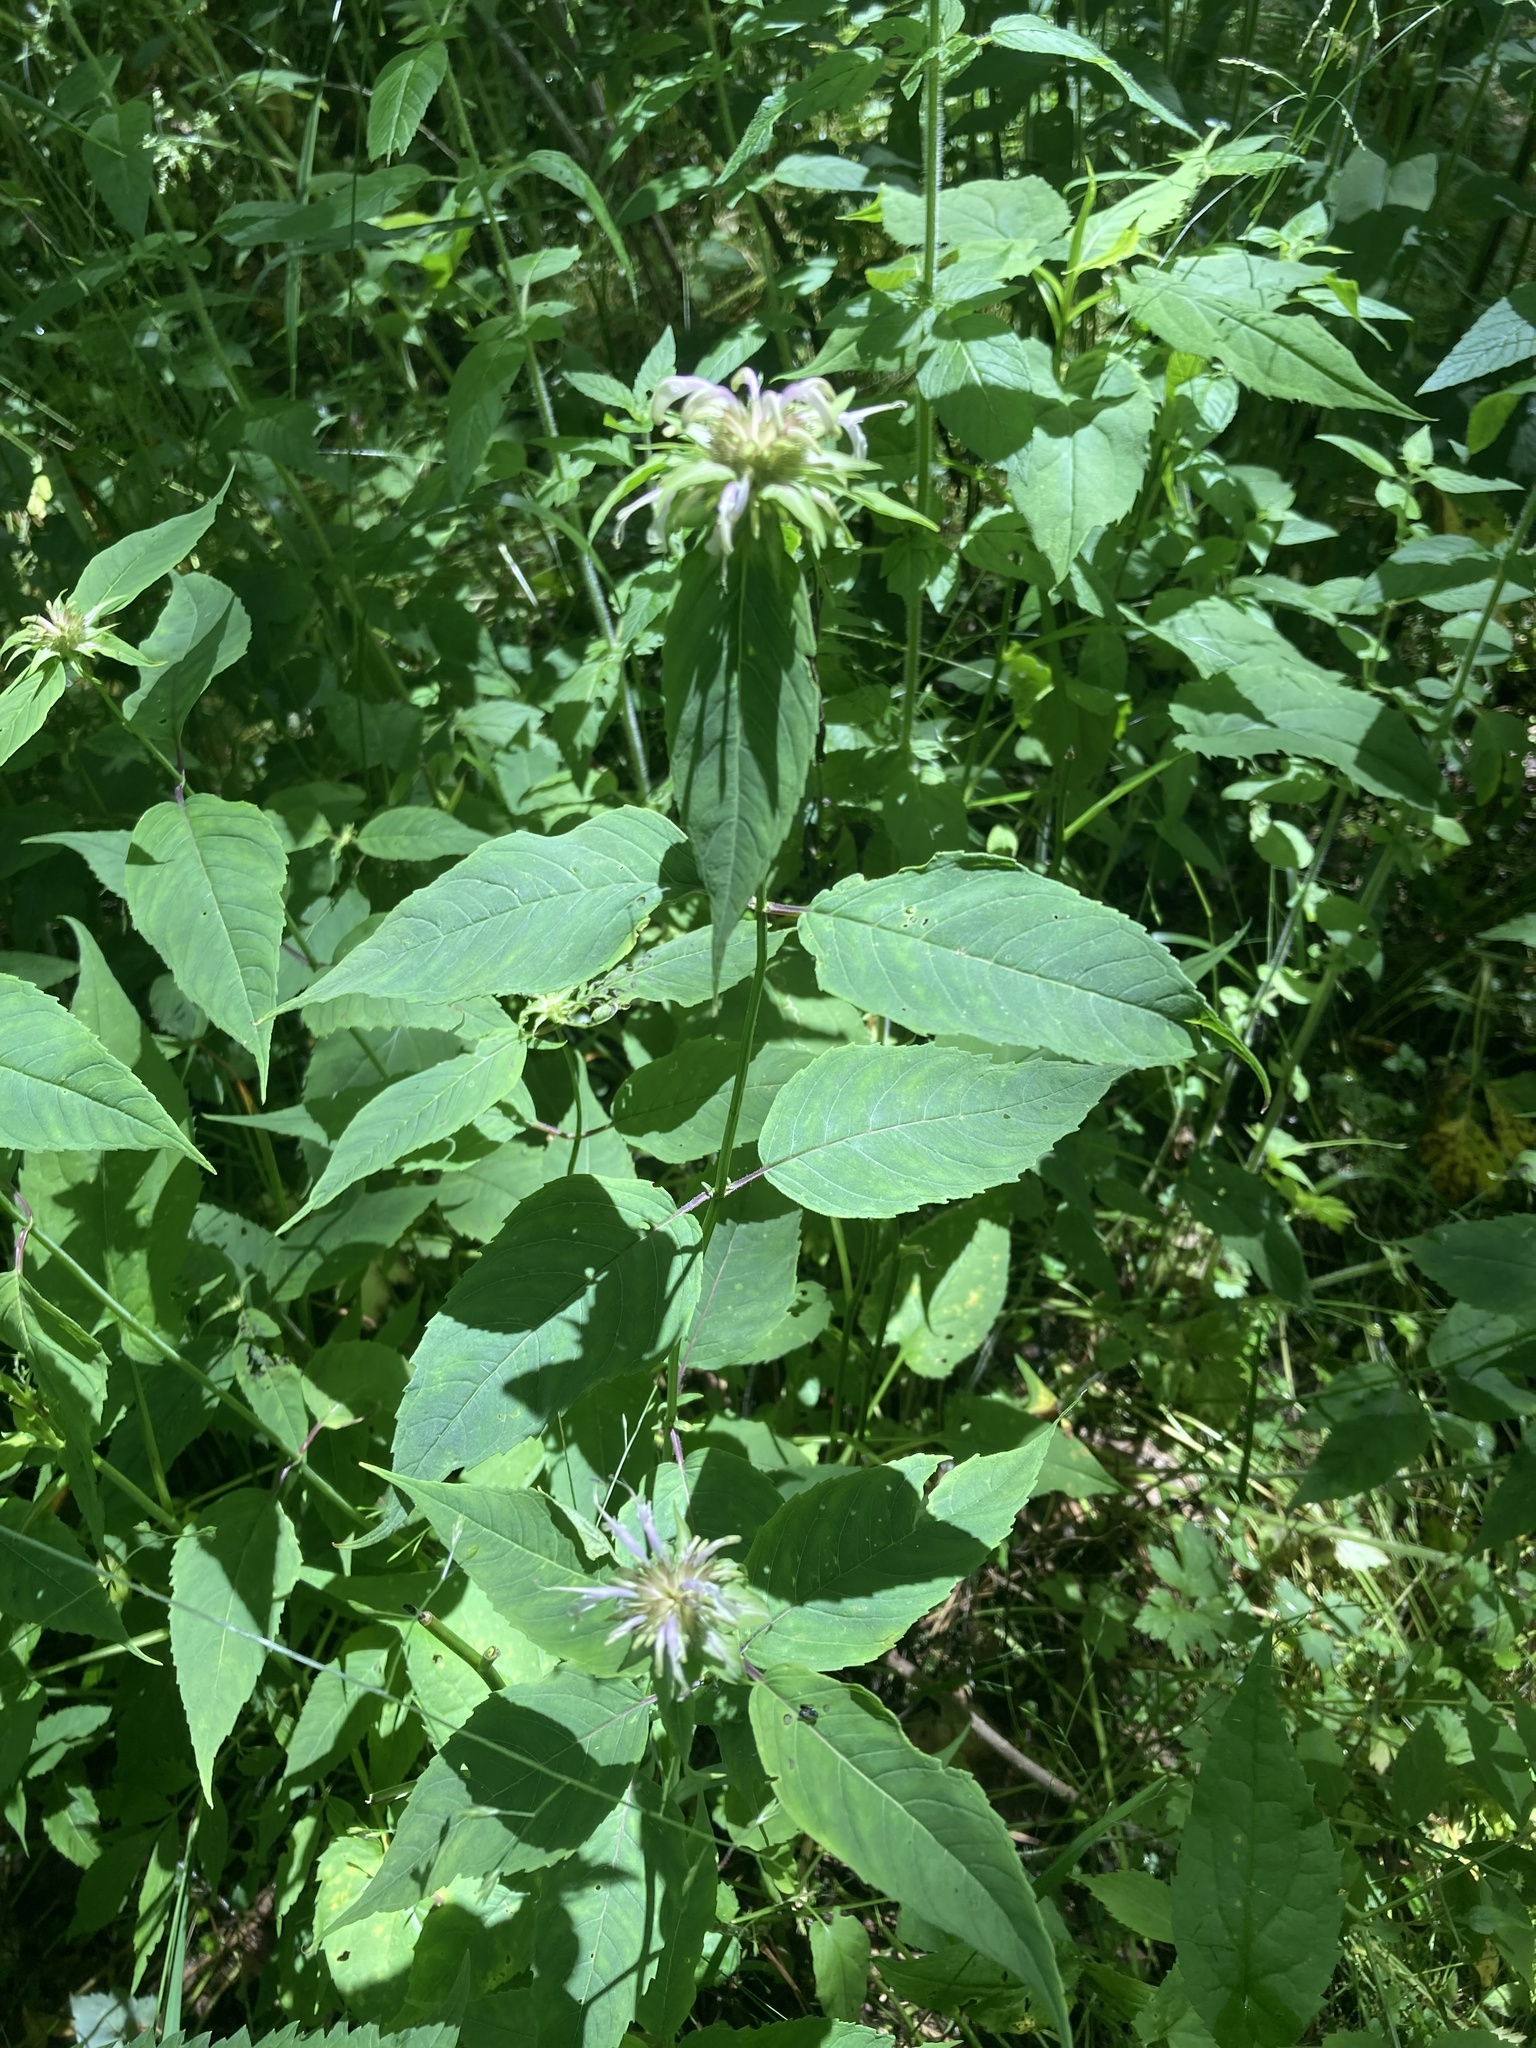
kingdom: Plantae
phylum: Tracheophyta
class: Magnoliopsida
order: Lamiales
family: Lamiaceae
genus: Monarda
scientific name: Monarda clinopodia
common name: Basil beebalm
